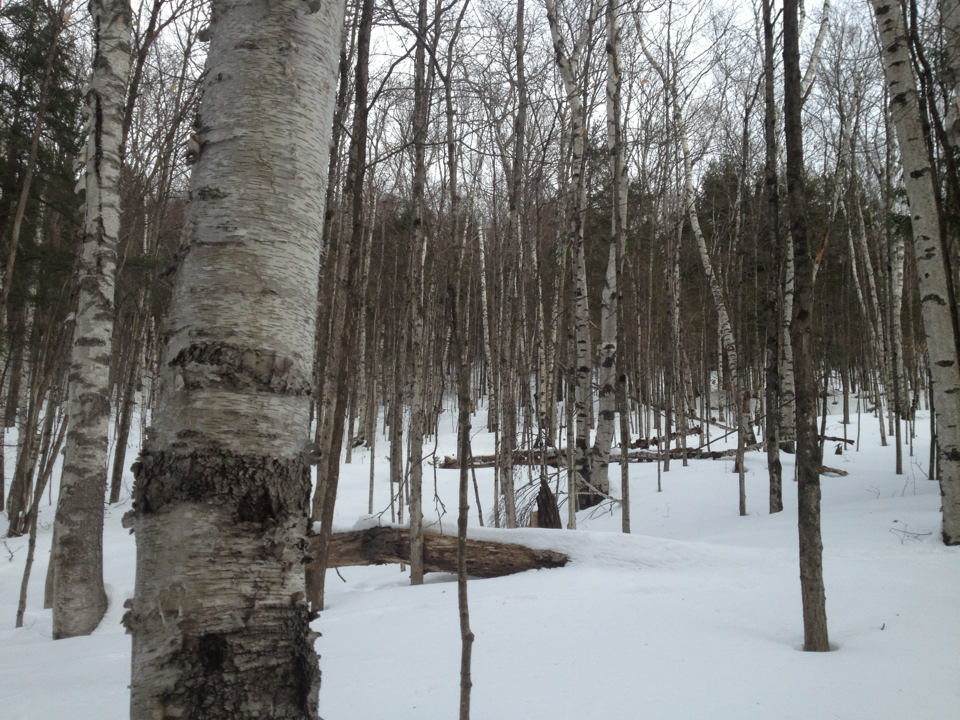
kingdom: Plantae
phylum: Tracheophyta
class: Magnoliopsida
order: Fagales
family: Betulaceae
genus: Betula
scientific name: Betula papyrifera
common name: Paper birch
